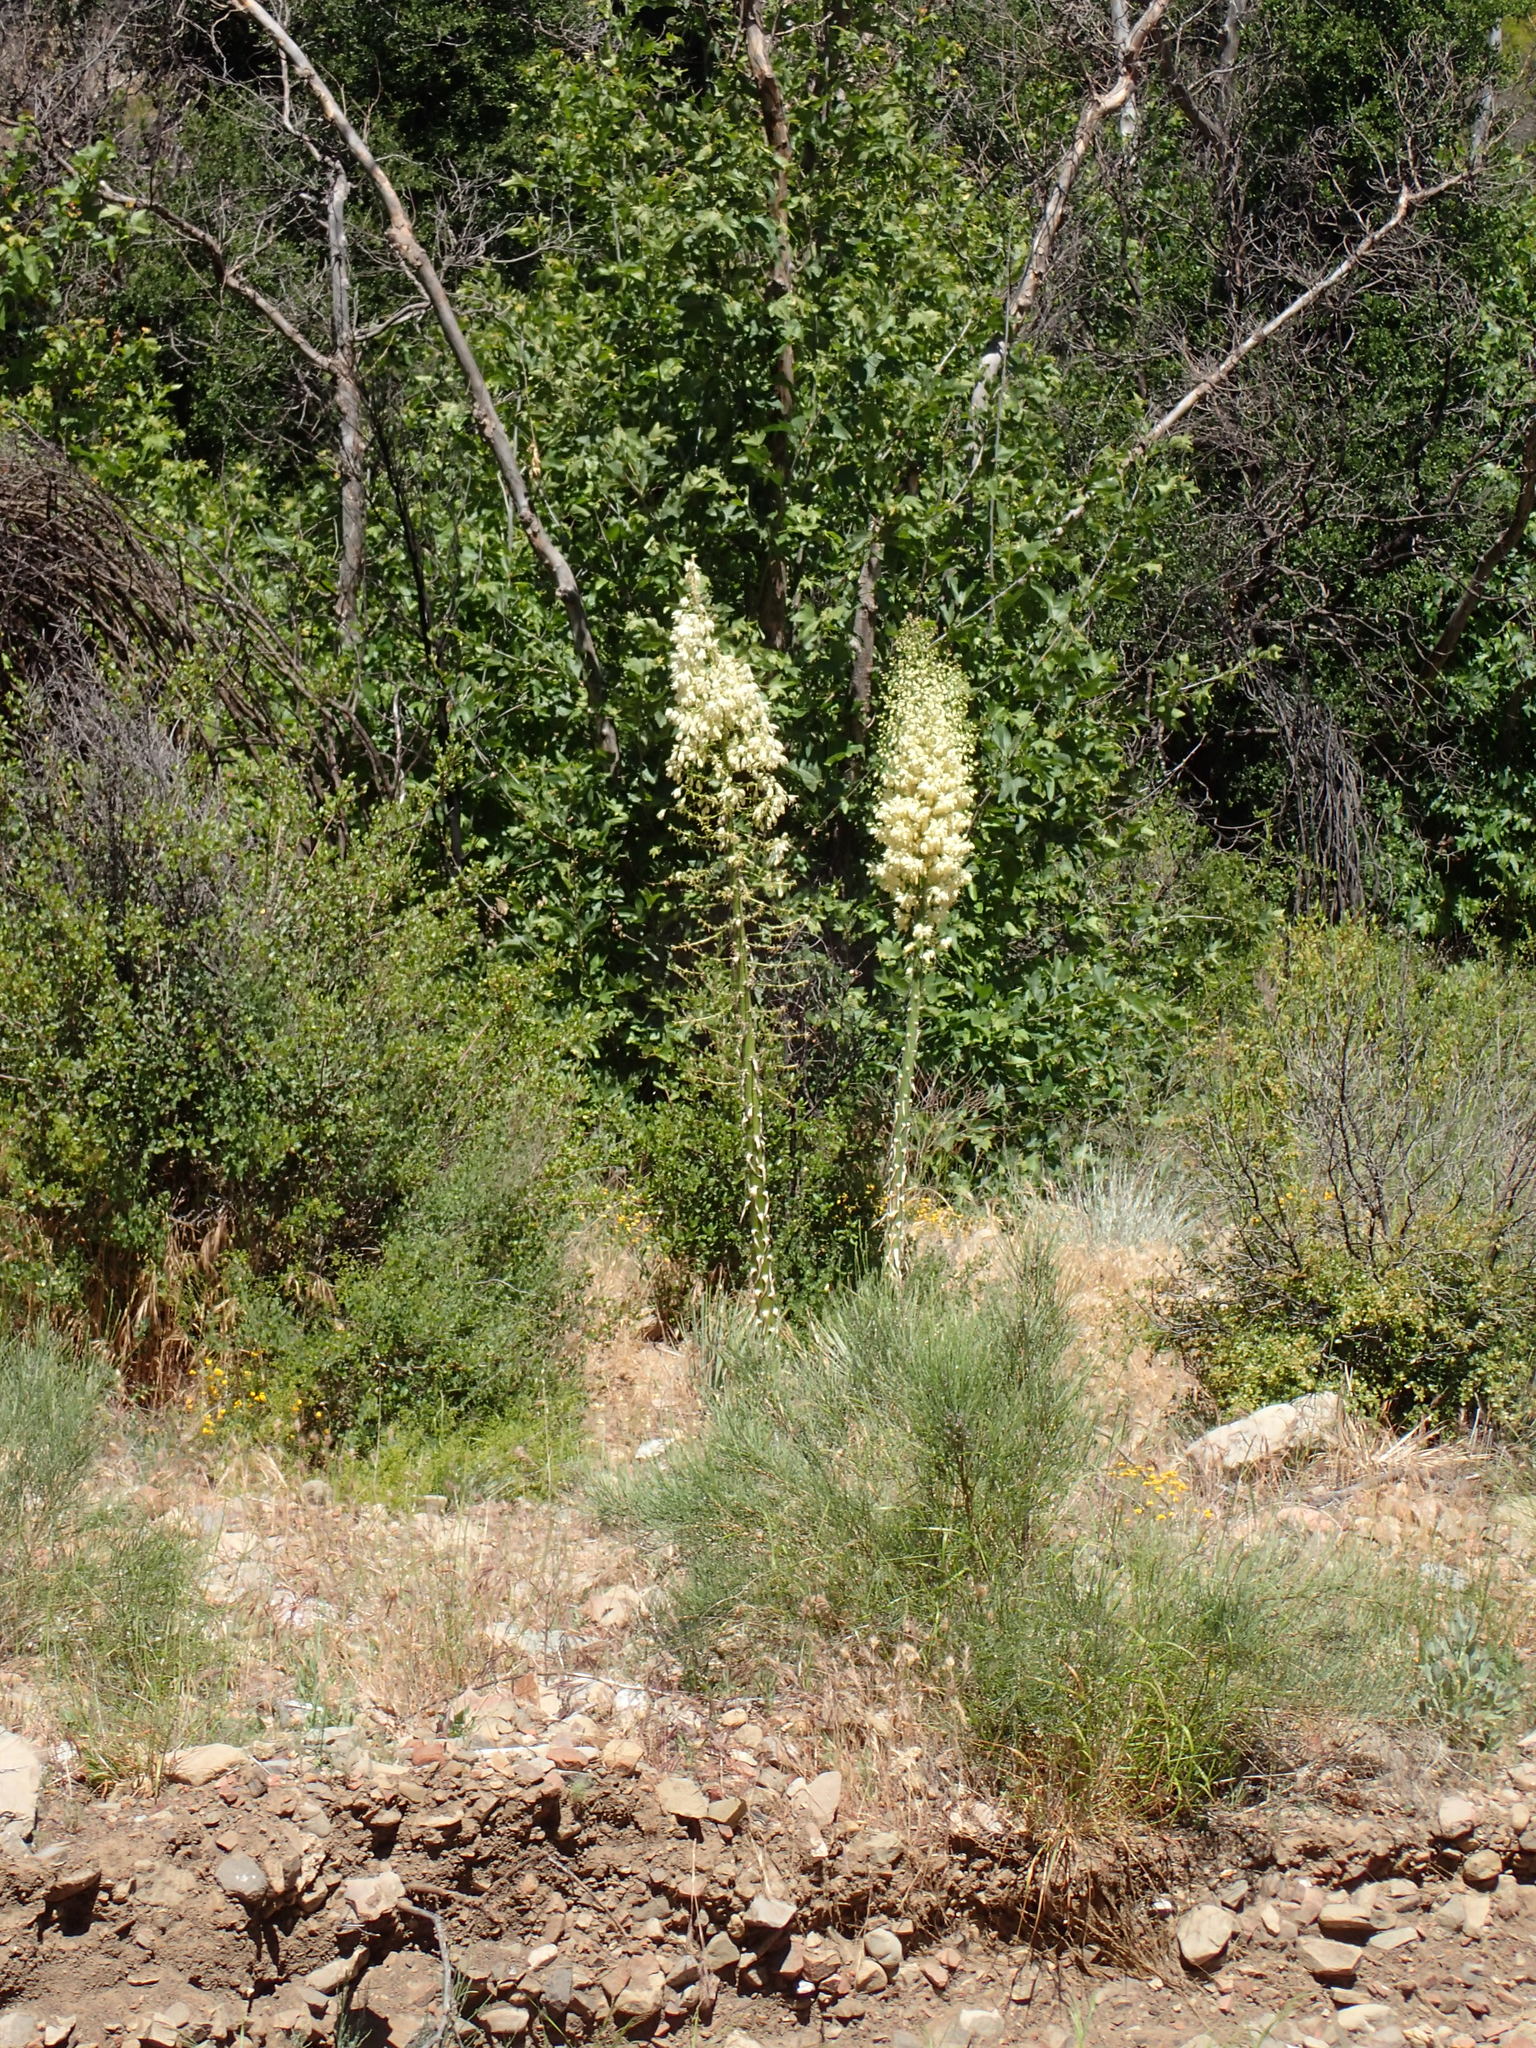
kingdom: Plantae
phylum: Tracheophyta
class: Liliopsida
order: Asparagales
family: Asparagaceae
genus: Hesperoyucca
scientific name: Hesperoyucca whipplei
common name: Our lord's-candle
